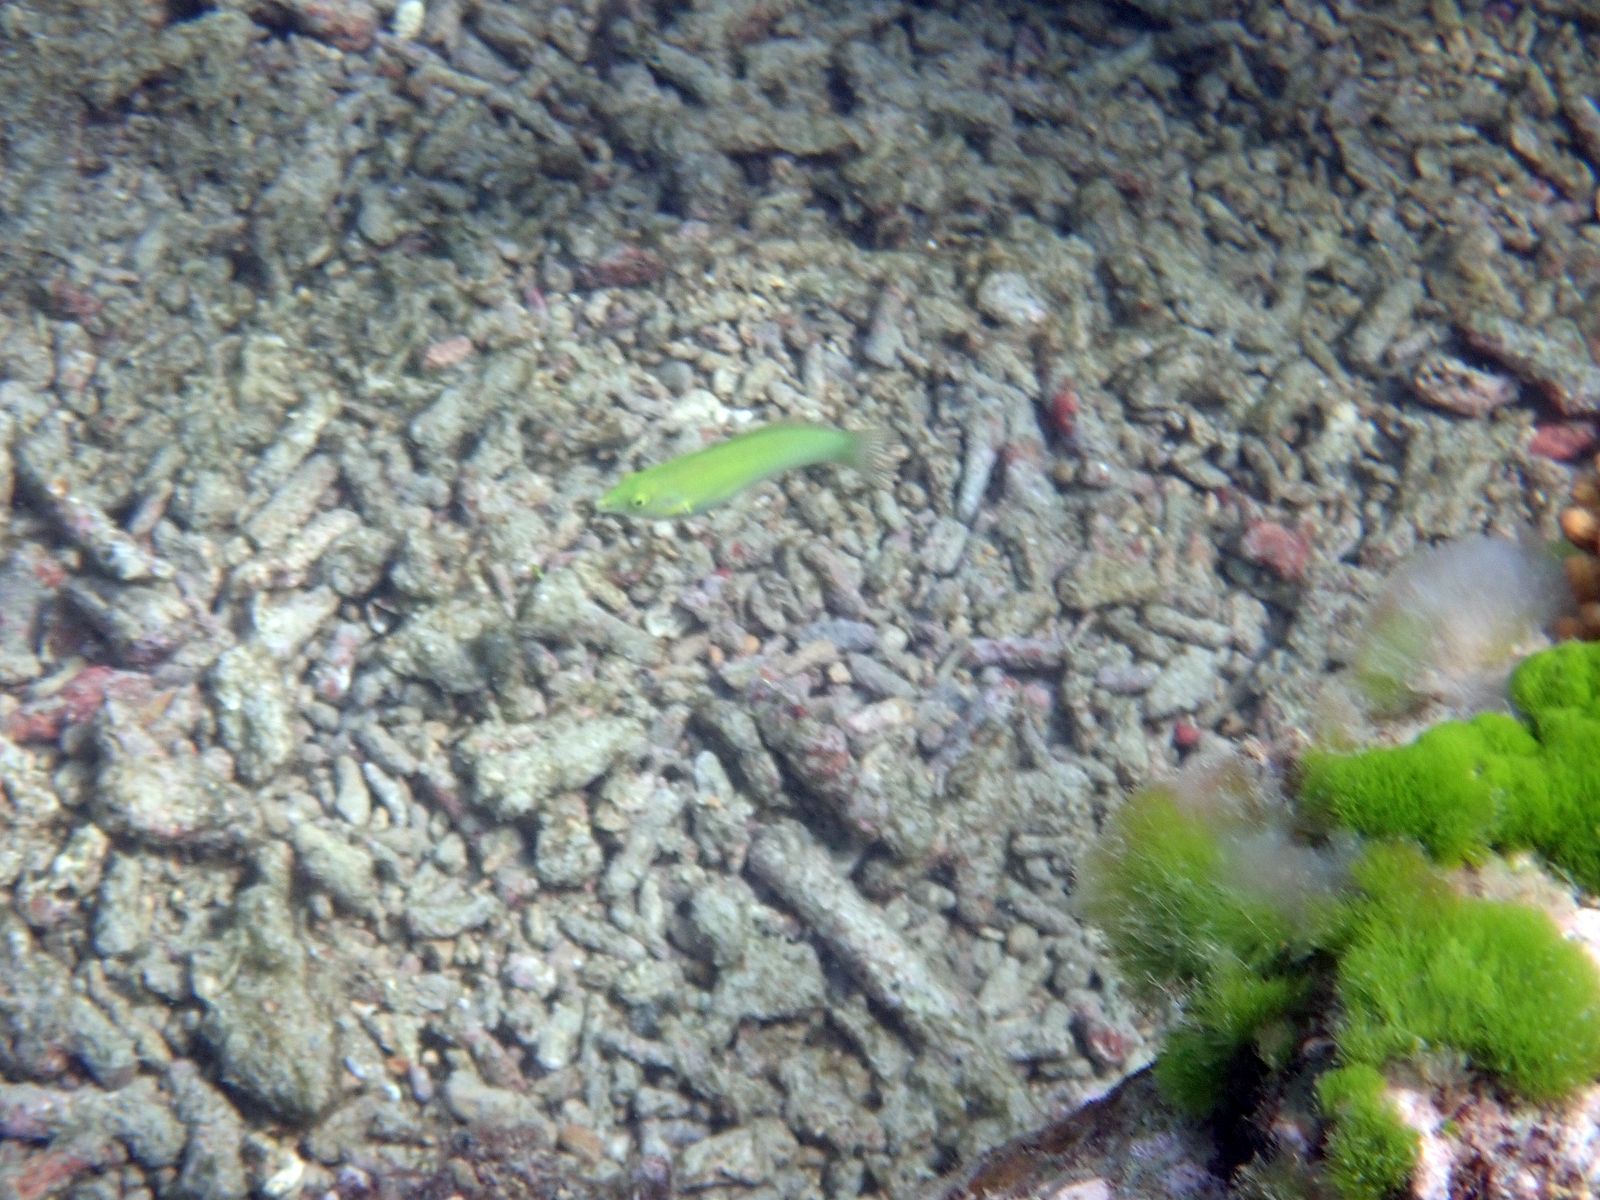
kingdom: Animalia
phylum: Chordata
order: Perciformes
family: Labridae
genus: Halichoeres
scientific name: Halichoeres chloropterus
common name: Pastel-green wrasse
